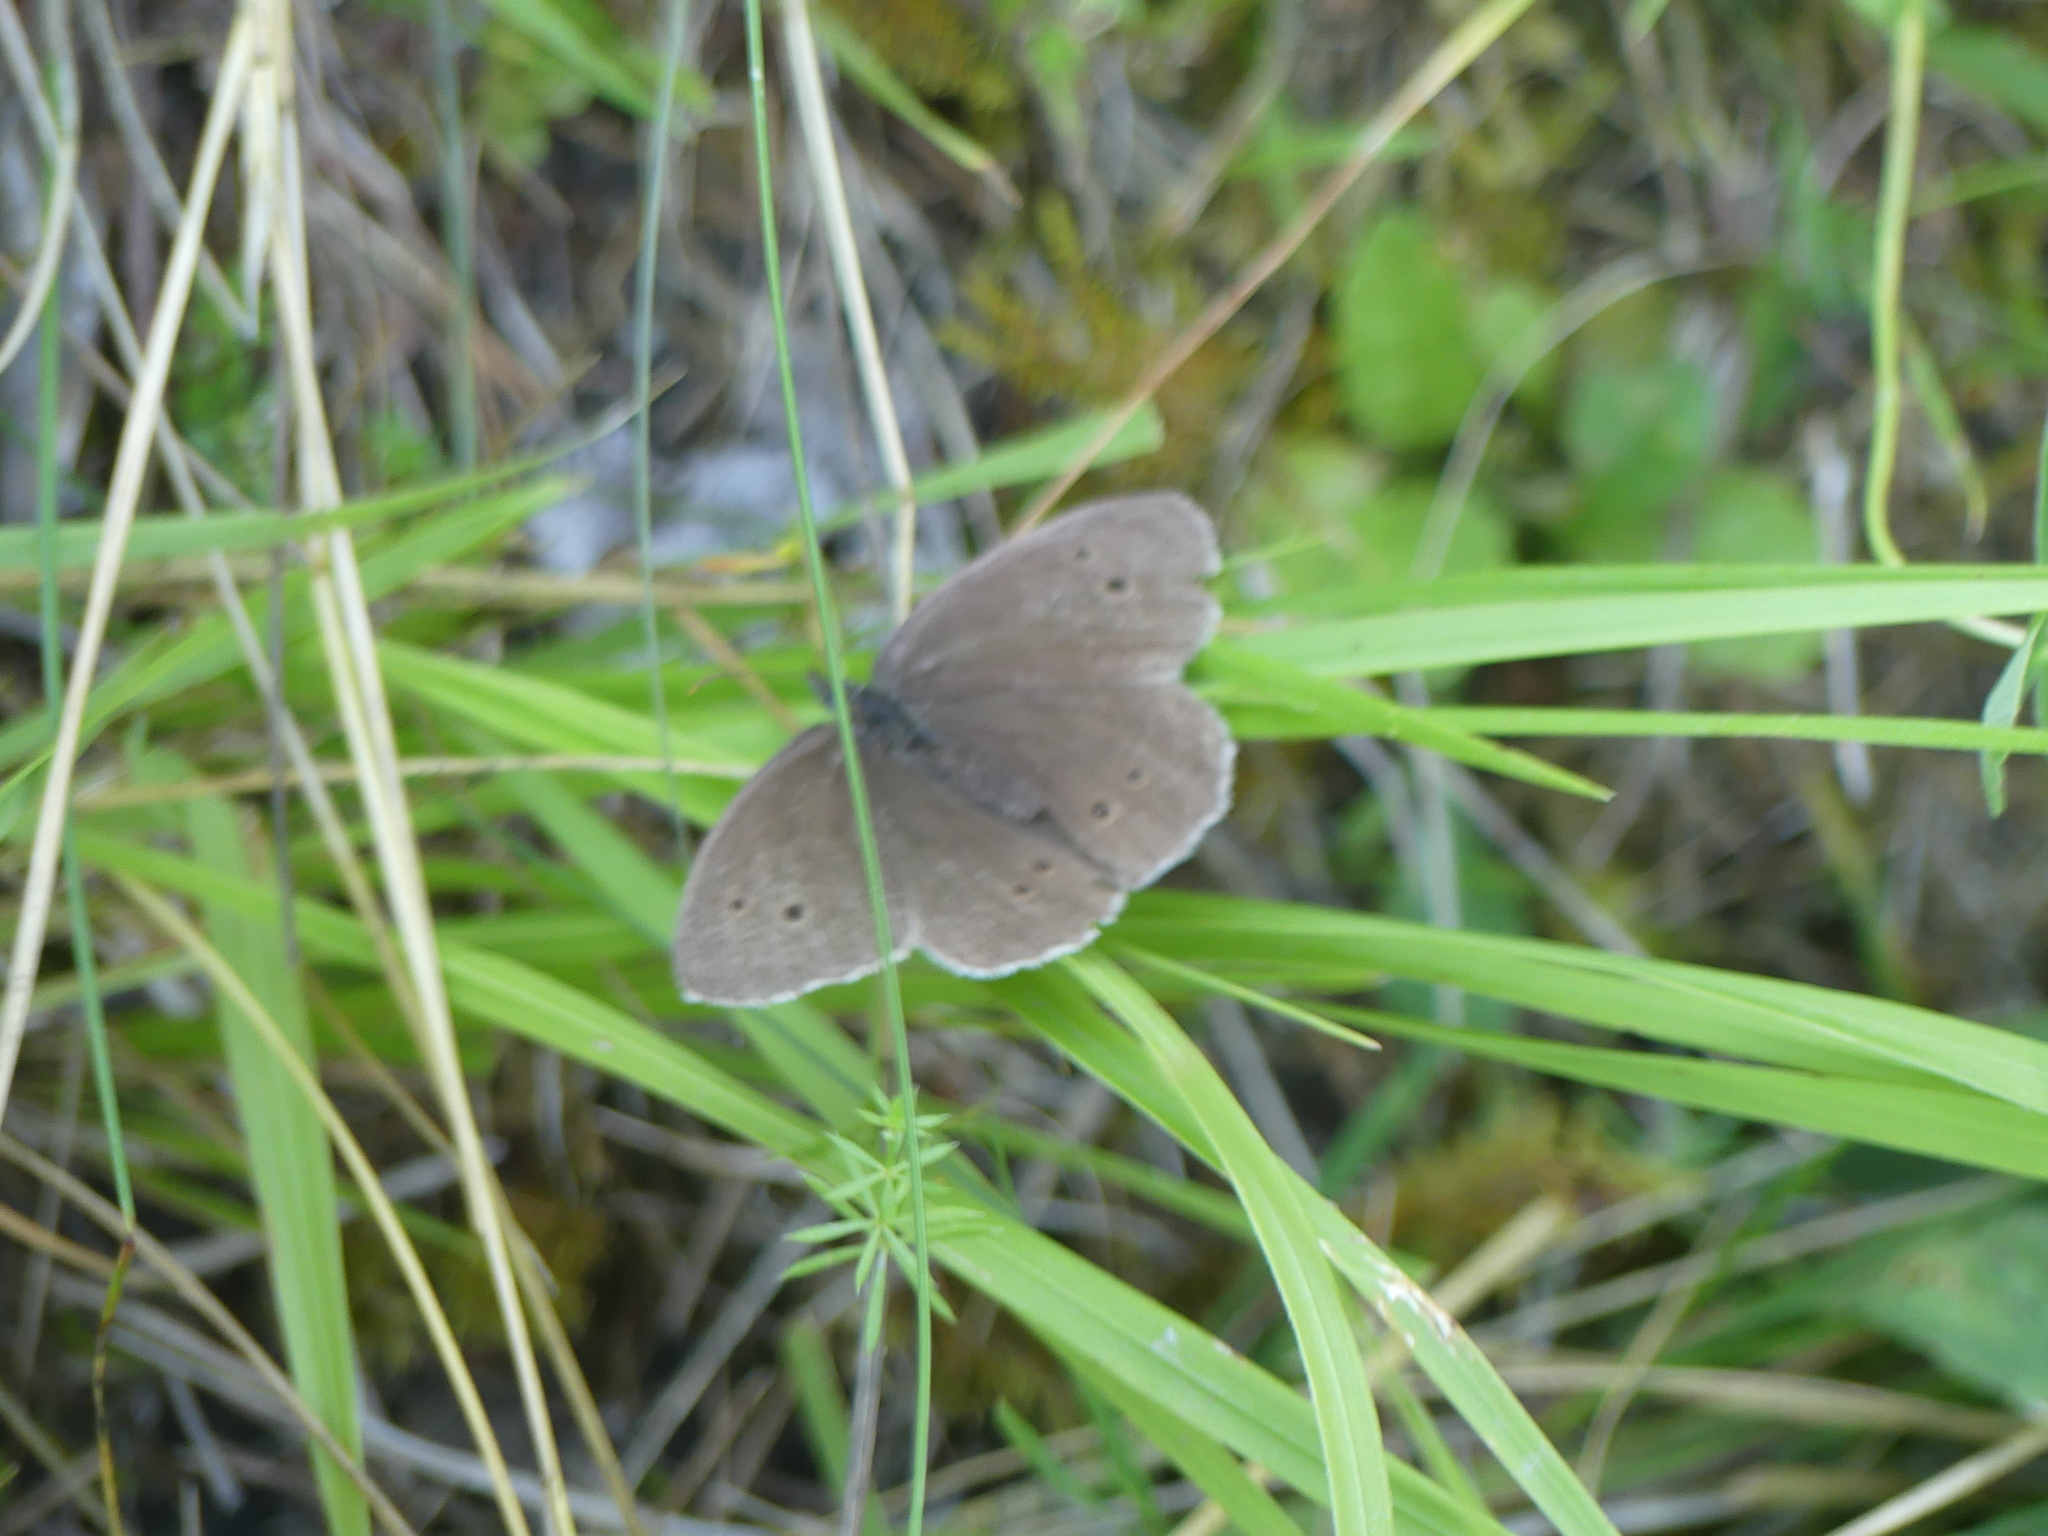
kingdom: Animalia
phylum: Arthropoda
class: Insecta
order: Lepidoptera
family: Nymphalidae
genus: Aphantopus
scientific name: Aphantopus hyperantus
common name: Ringlet
